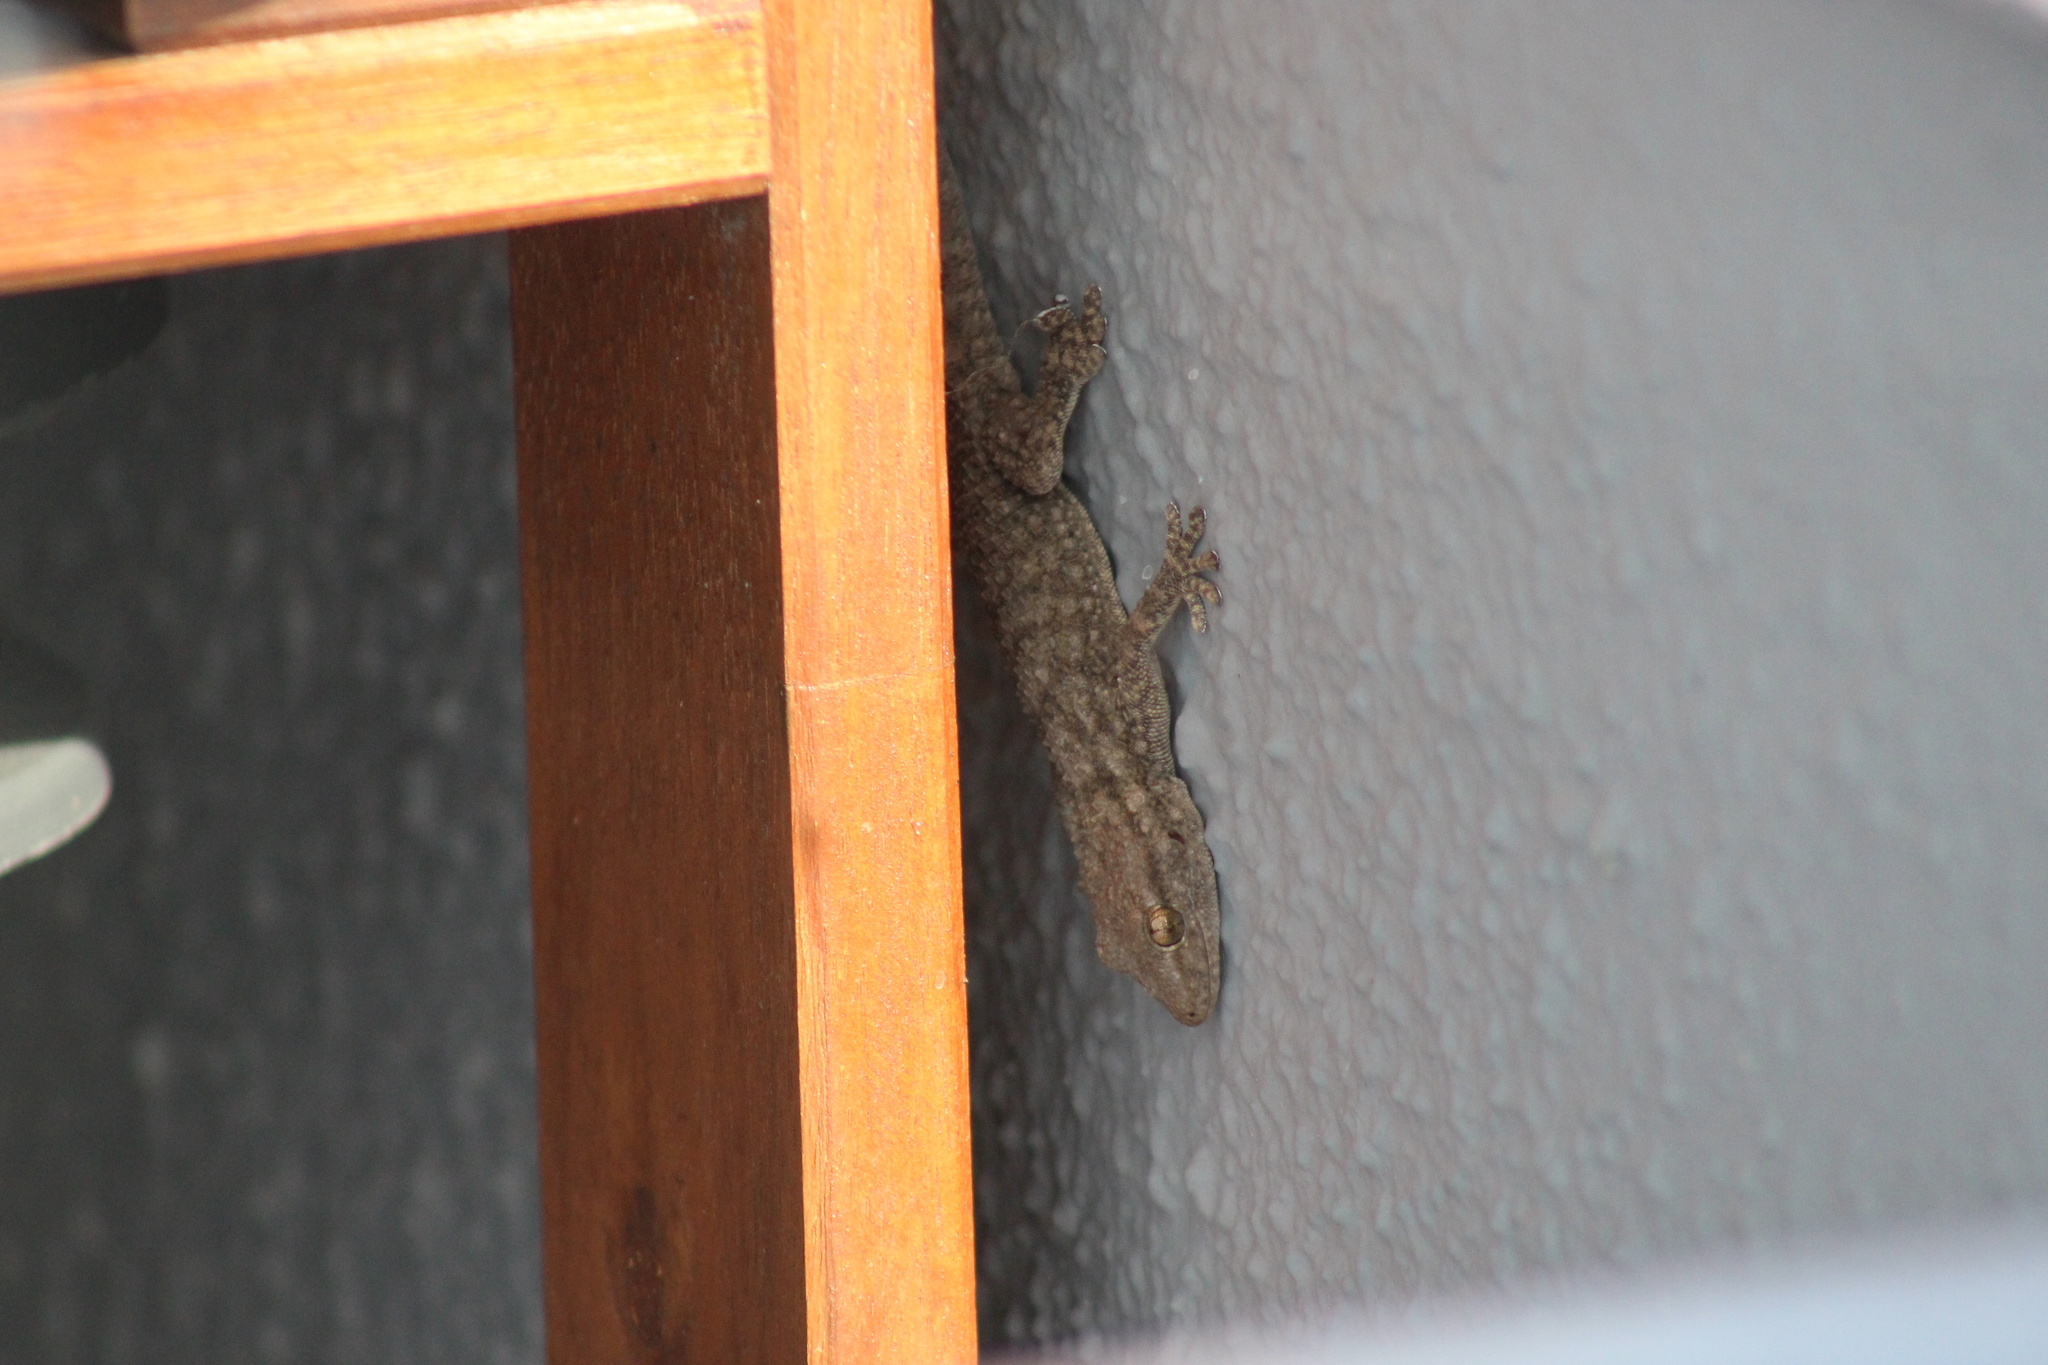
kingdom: Animalia
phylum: Chordata
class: Squamata
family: Phyllodactylidae
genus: Tarentola
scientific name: Tarentola mauritanica
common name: Moorish gecko
